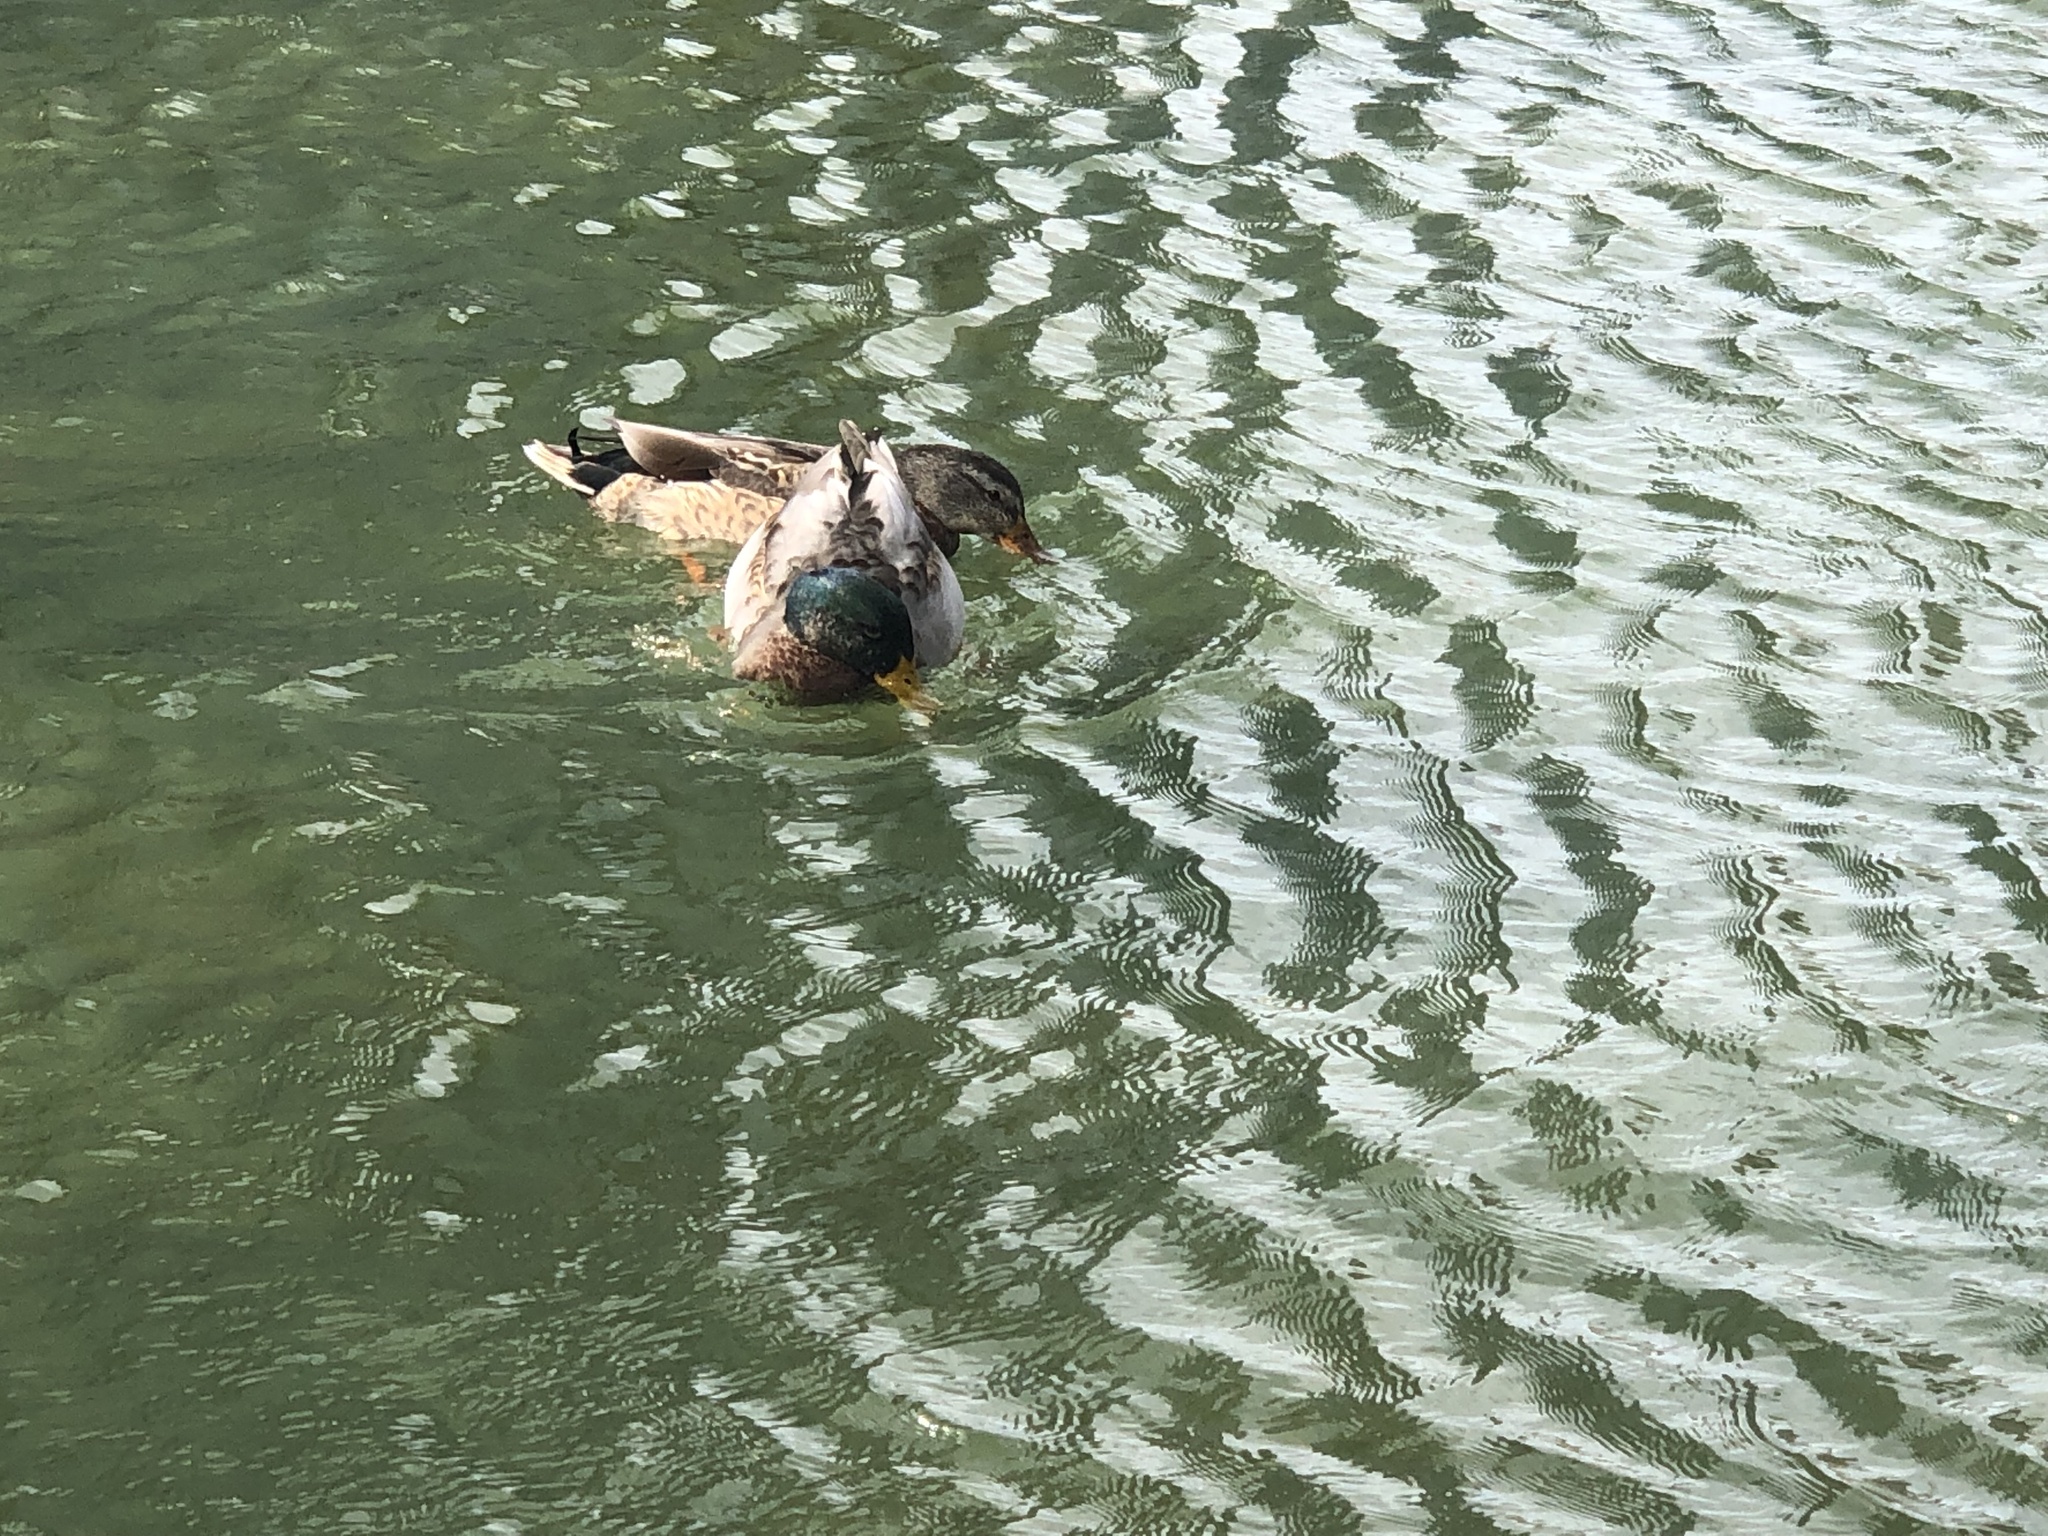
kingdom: Animalia
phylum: Chordata
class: Aves
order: Anseriformes
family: Anatidae
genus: Anas
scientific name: Anas platyrhynchos
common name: Mallard
